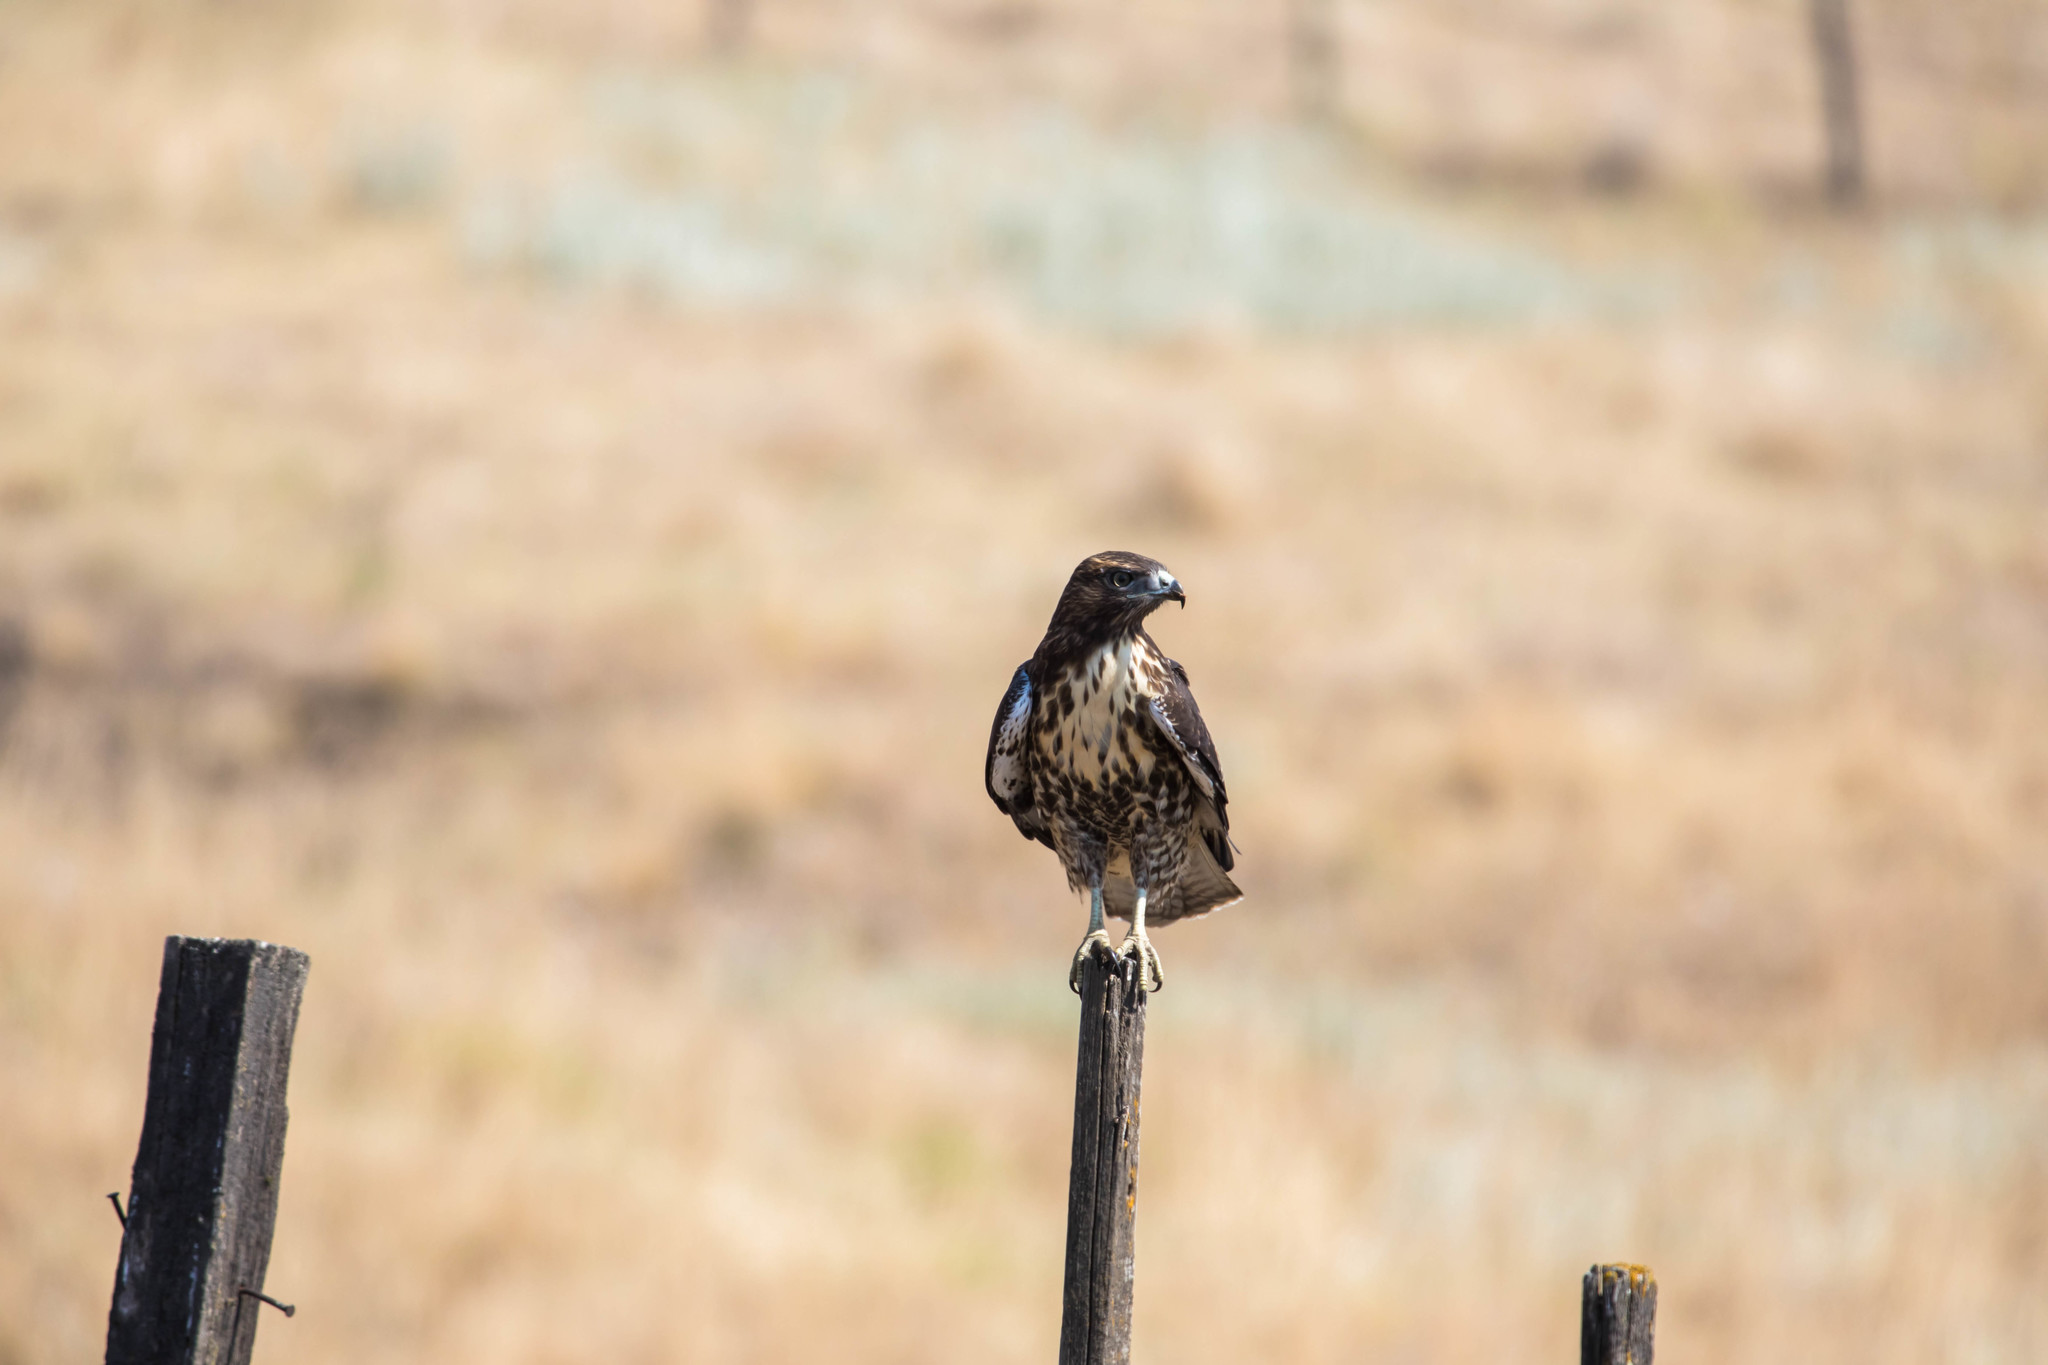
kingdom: Animalia
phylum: Chordata
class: Aves
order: Accipitriformes
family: Accipitridae
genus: Buteo
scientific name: Buteo jamaicensis
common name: Red-tailed hawk
